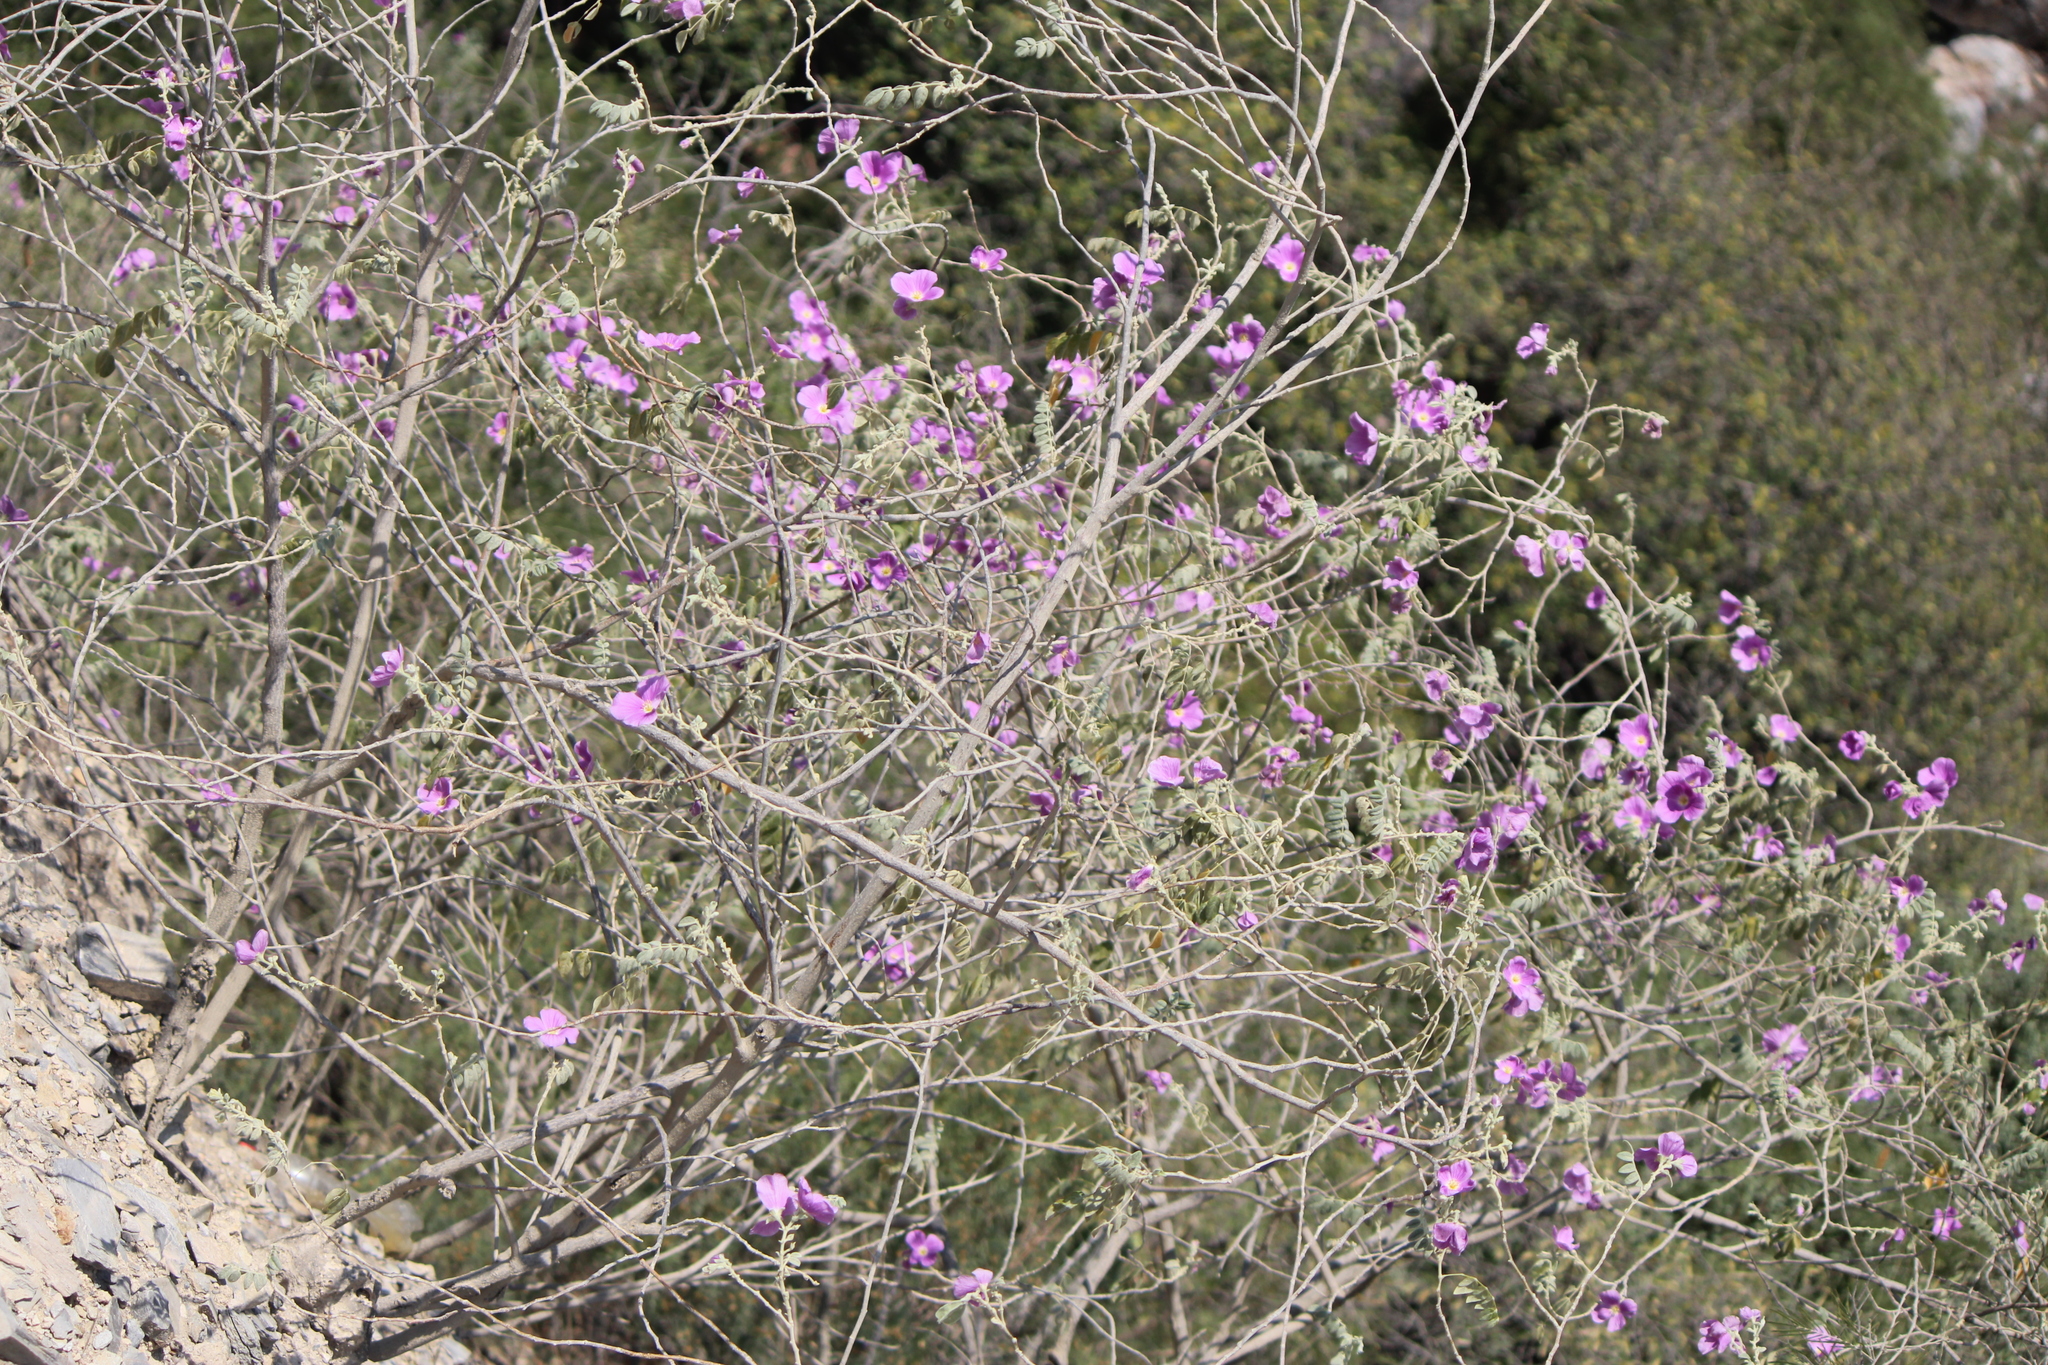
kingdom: Plantae
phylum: Tracheophyta
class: Magnoliopsida
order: Zygophyllales
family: Zygophyllaceae
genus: Morkillia
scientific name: Morkillia mexicana
